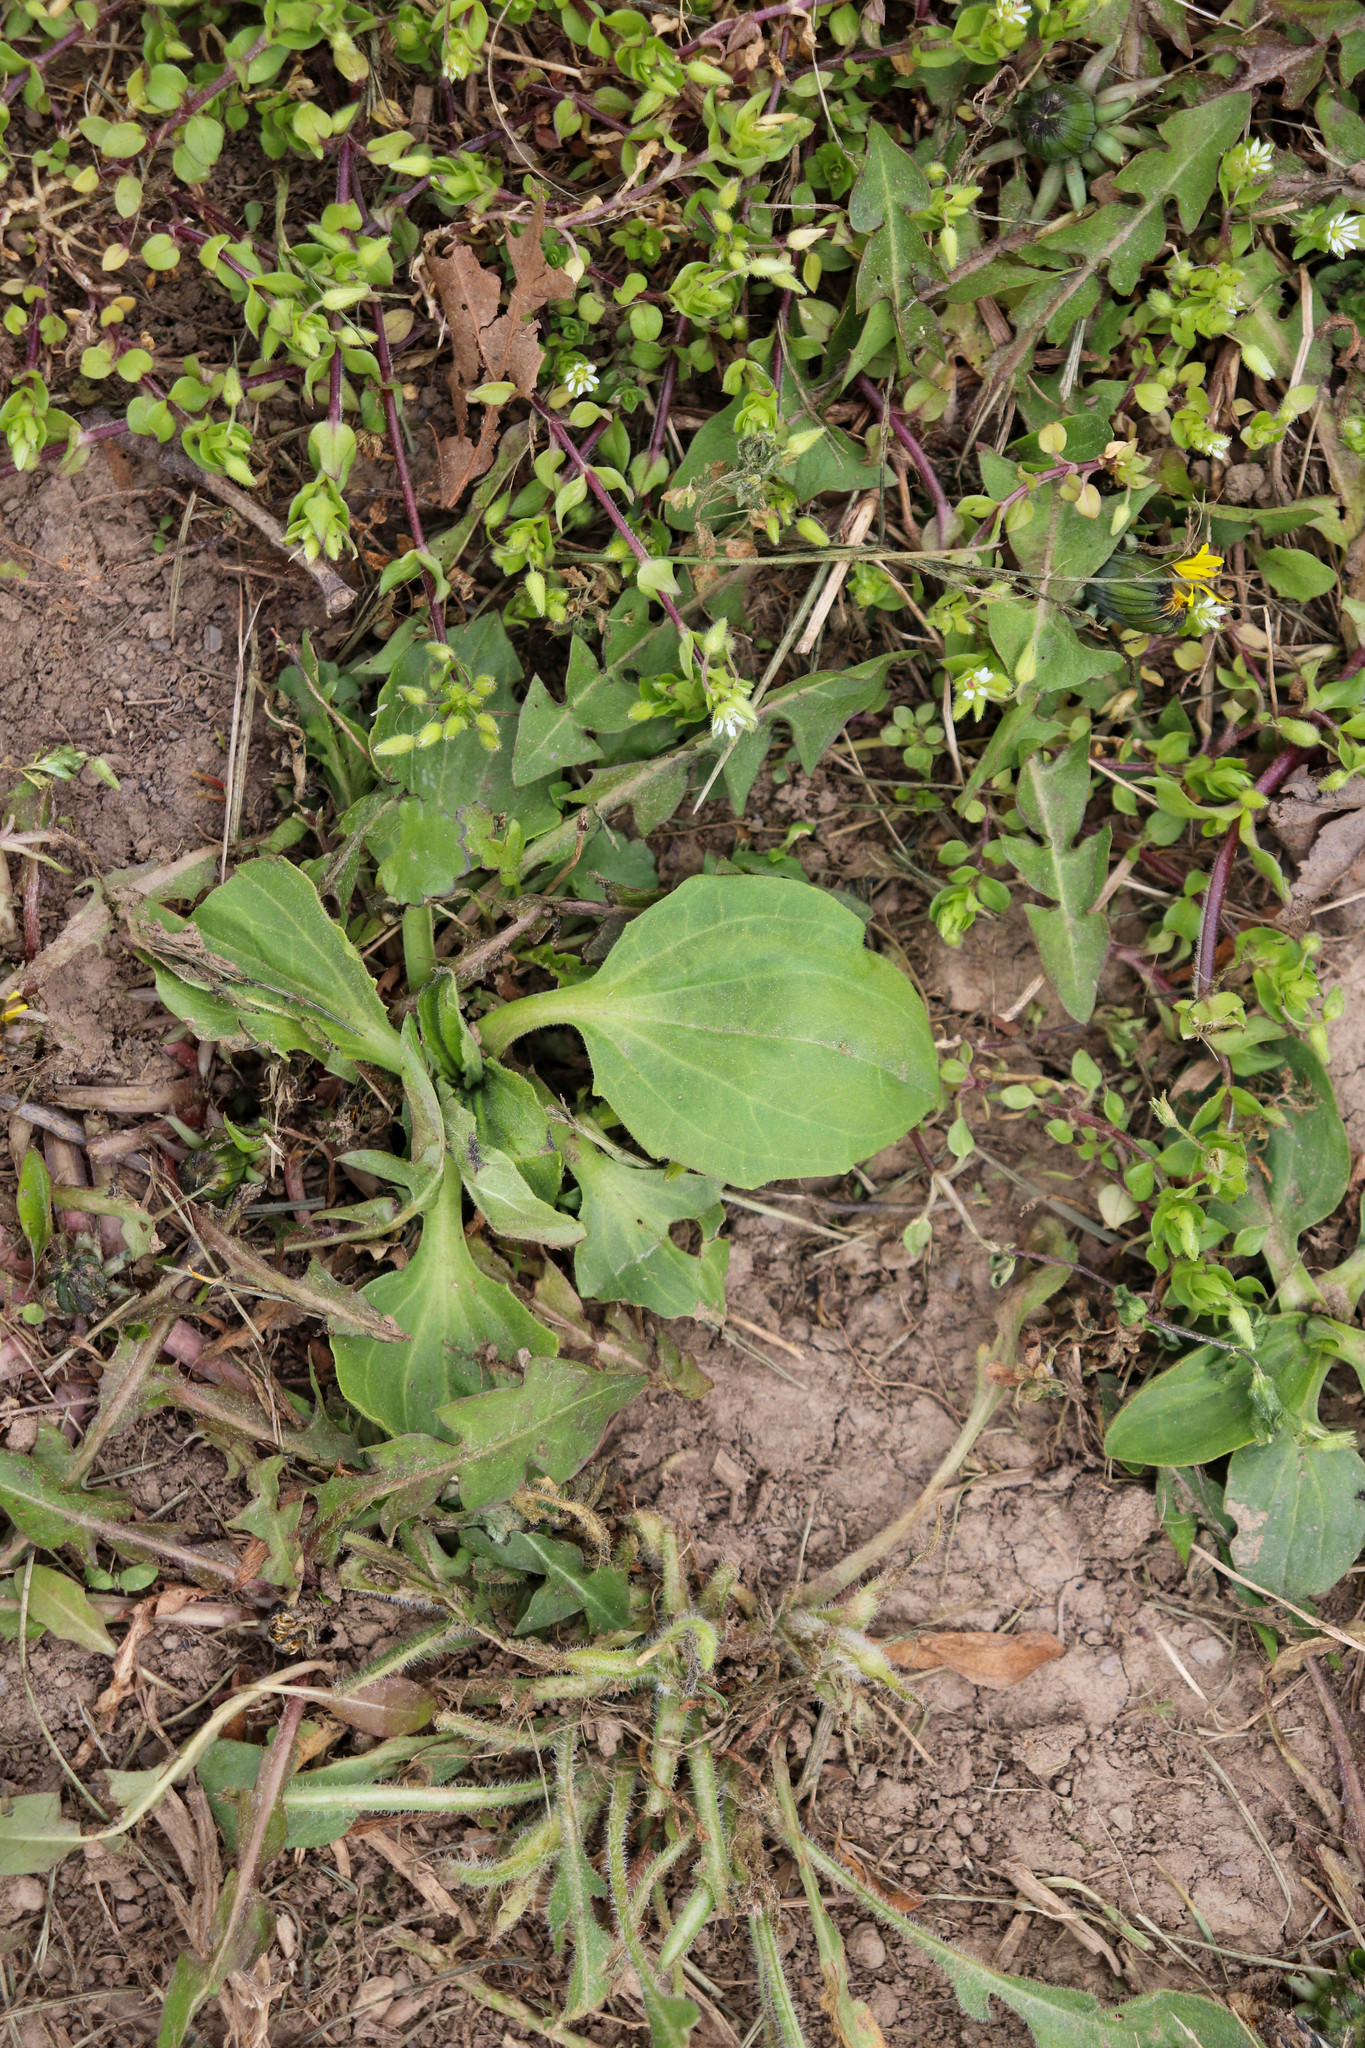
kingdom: Plantae
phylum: Tracheophyta
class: Magnoliopsida
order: Lamiales
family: Plantaginaceae
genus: Plantago
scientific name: Plantago major
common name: Common plantain
